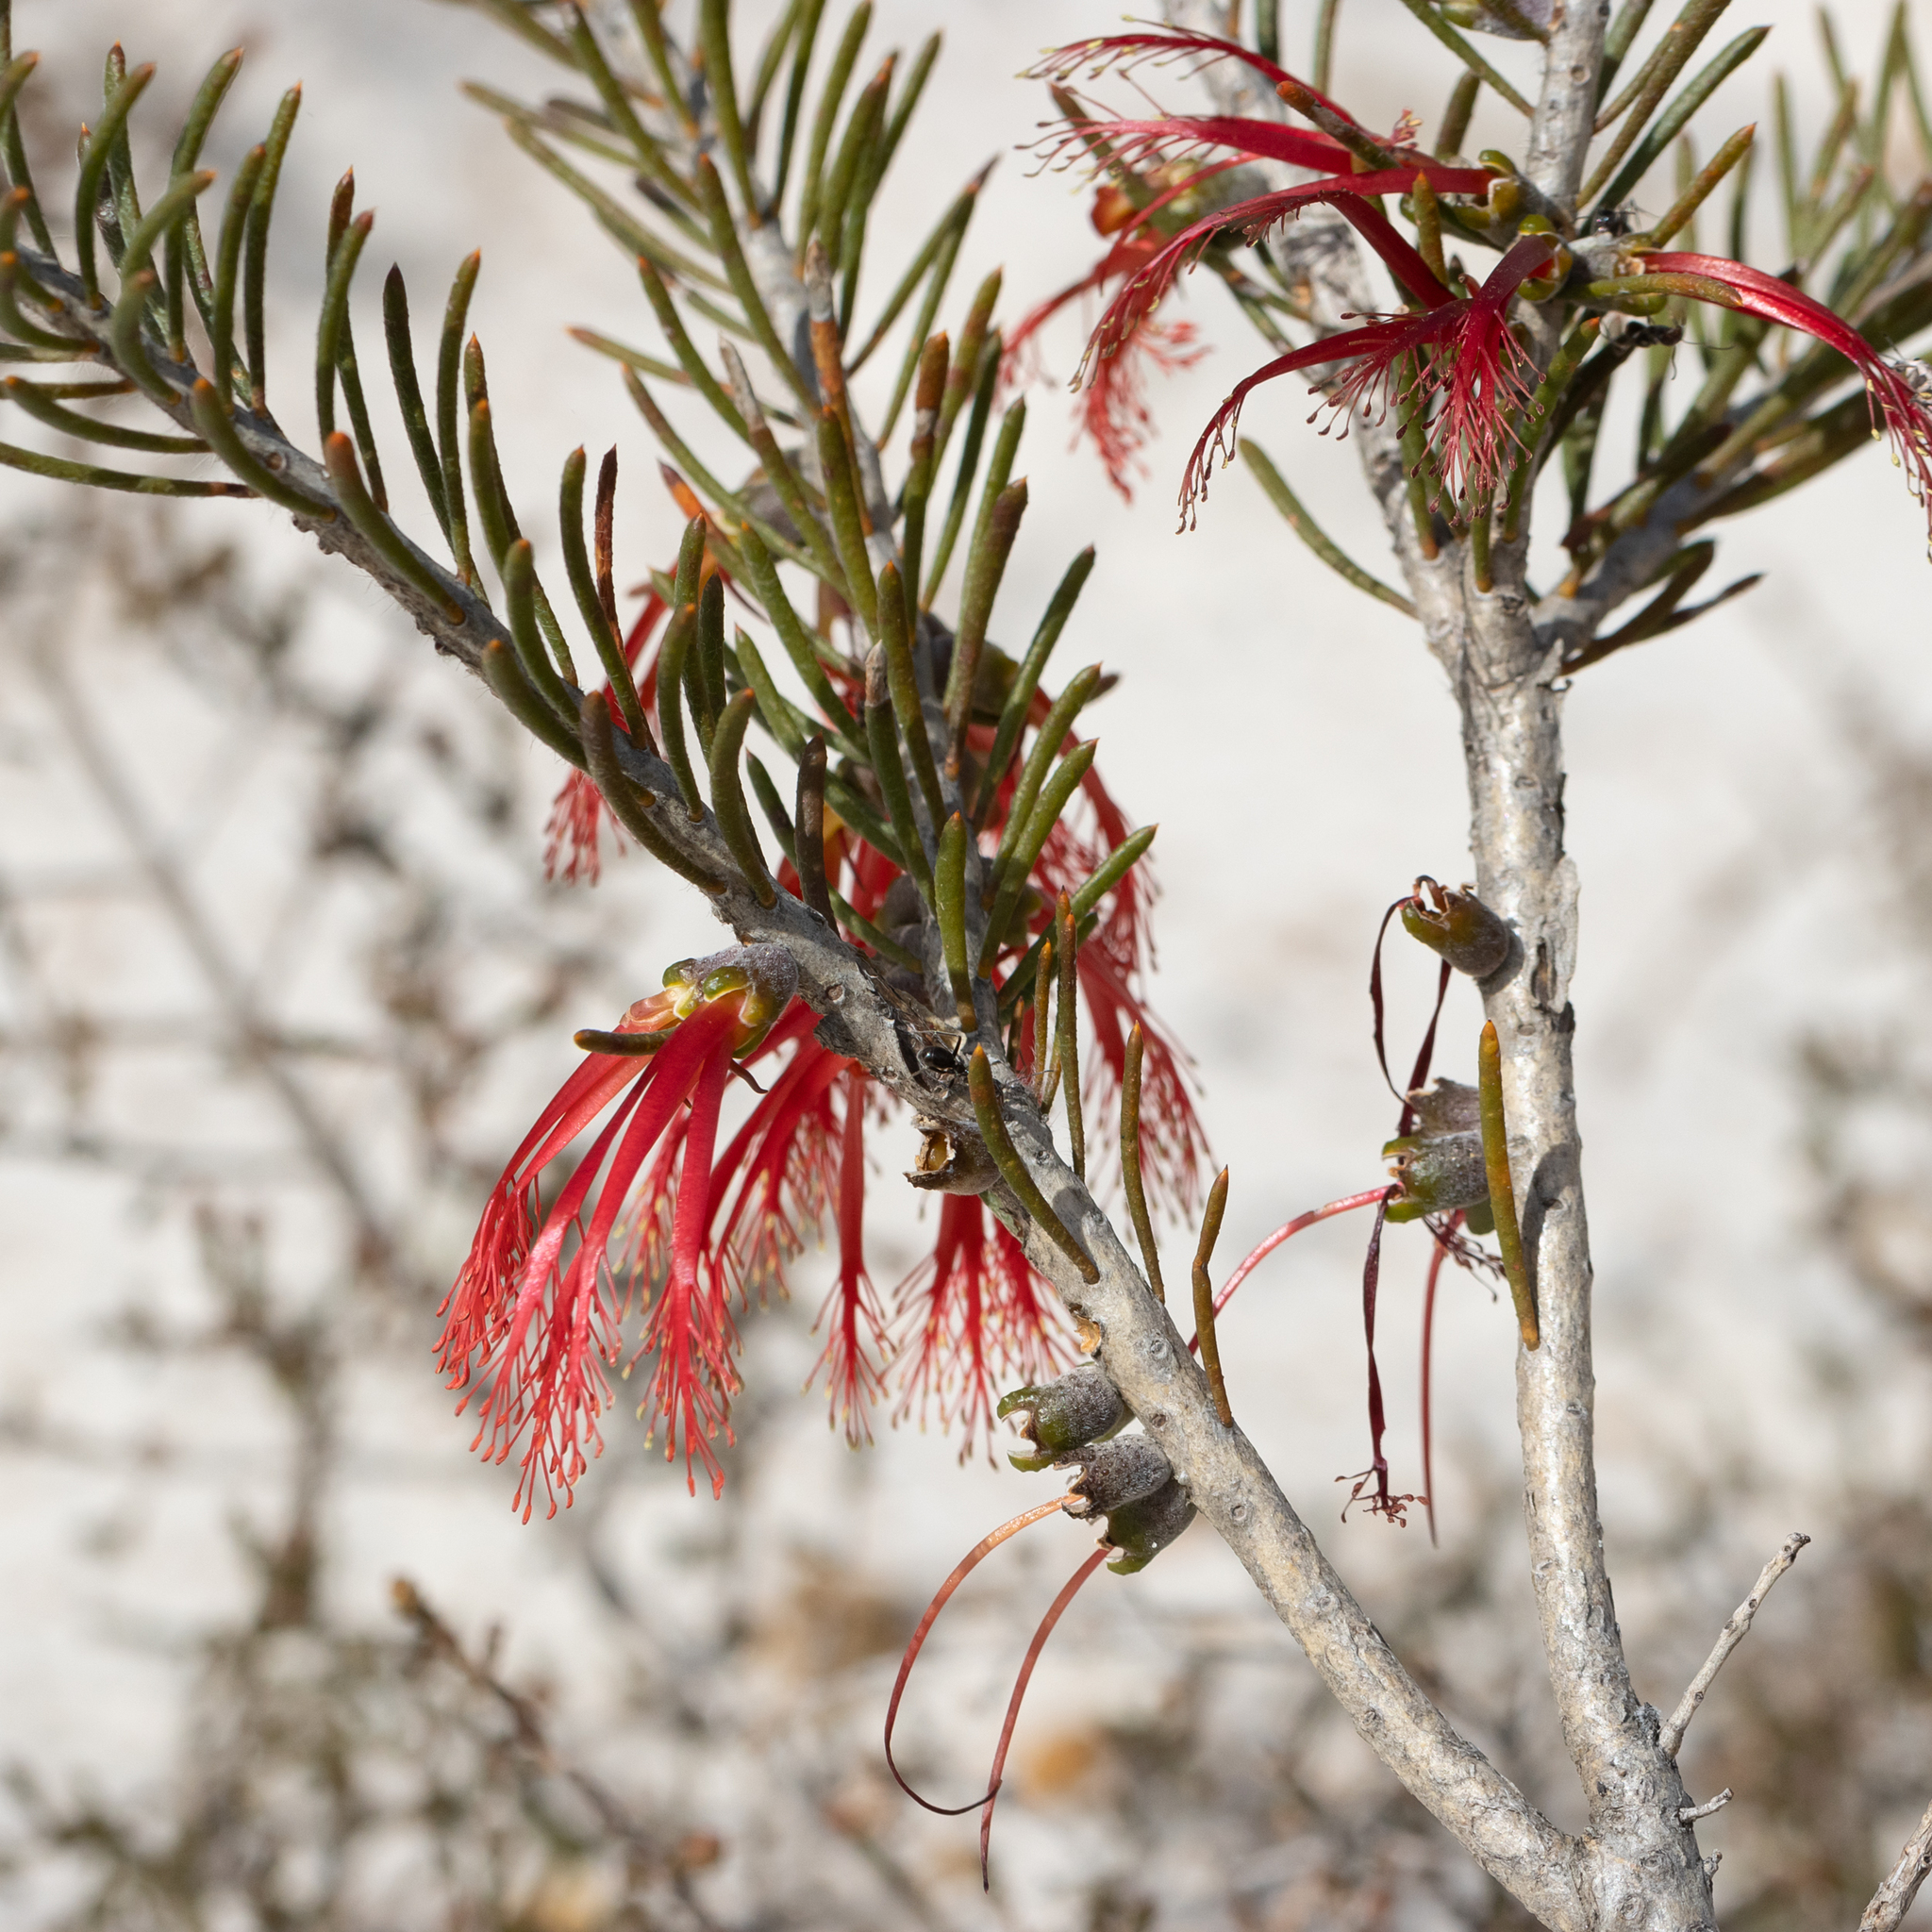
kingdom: Plantae
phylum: Tracheophyta
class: Magnoliopsida
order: Myrtales
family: Myrtaceae
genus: Melaleuca
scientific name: Melaleuca quadrifida
